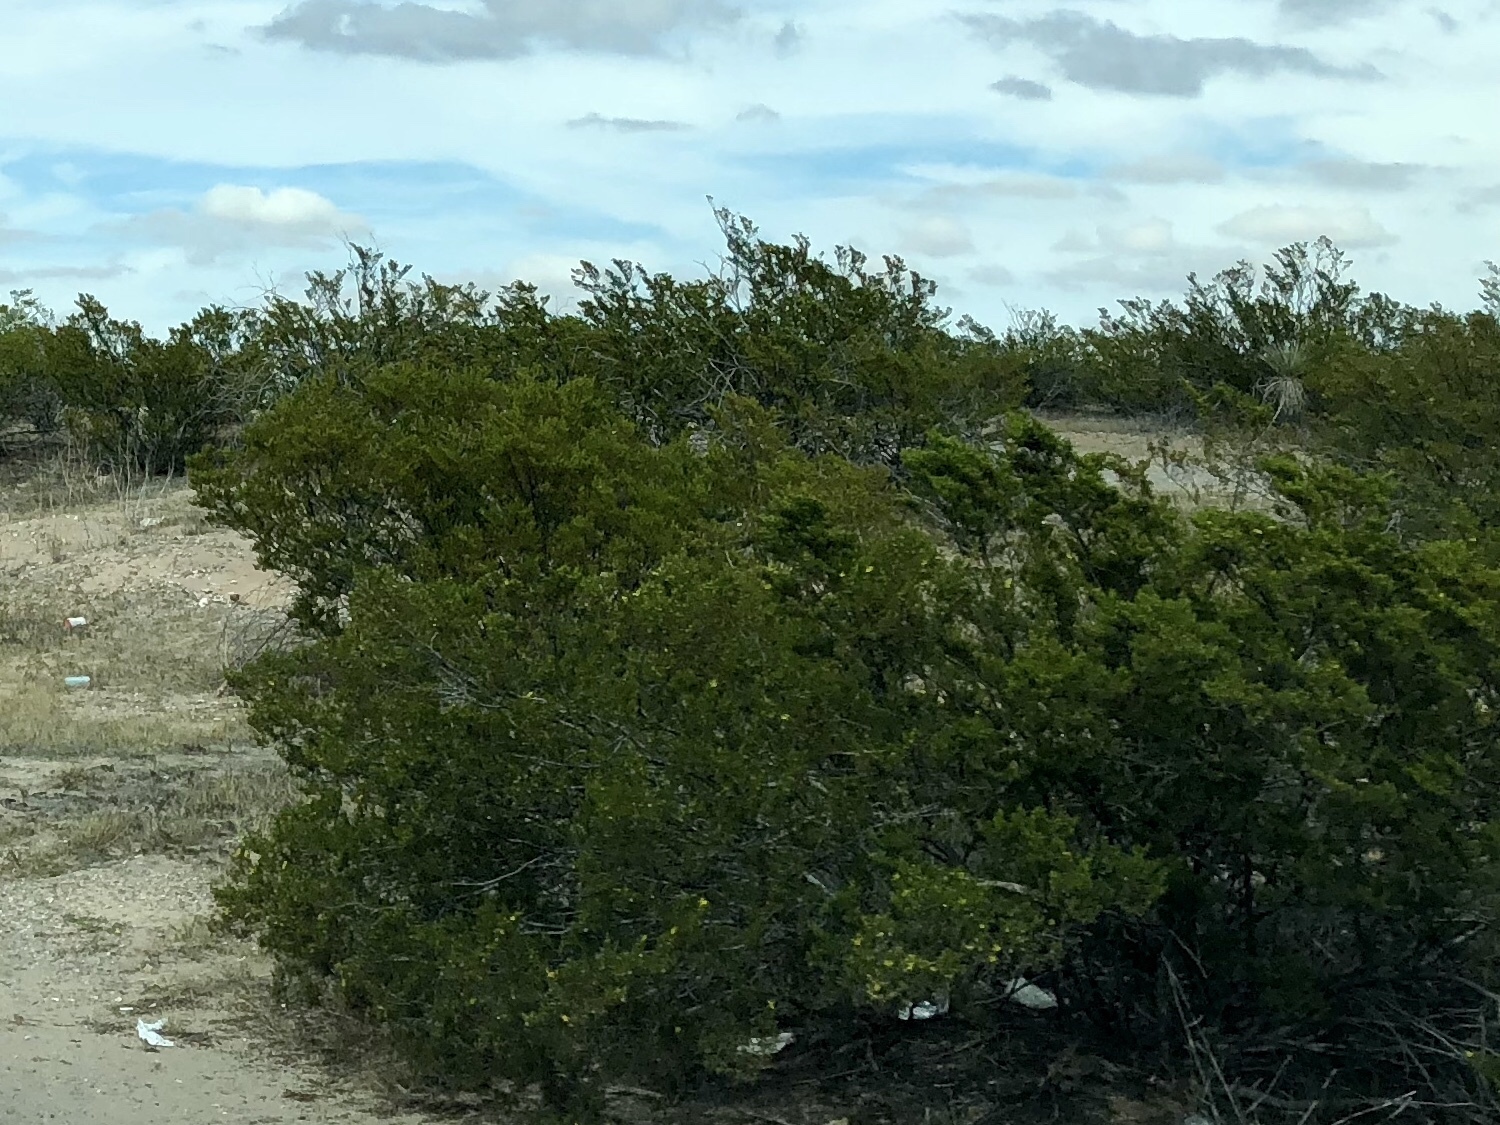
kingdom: Plantae
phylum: Tracheophyta
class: Magnoliopsida
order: Zygophyllales
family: Zygophyllaceae
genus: Larrea
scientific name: Larrea tridentata
